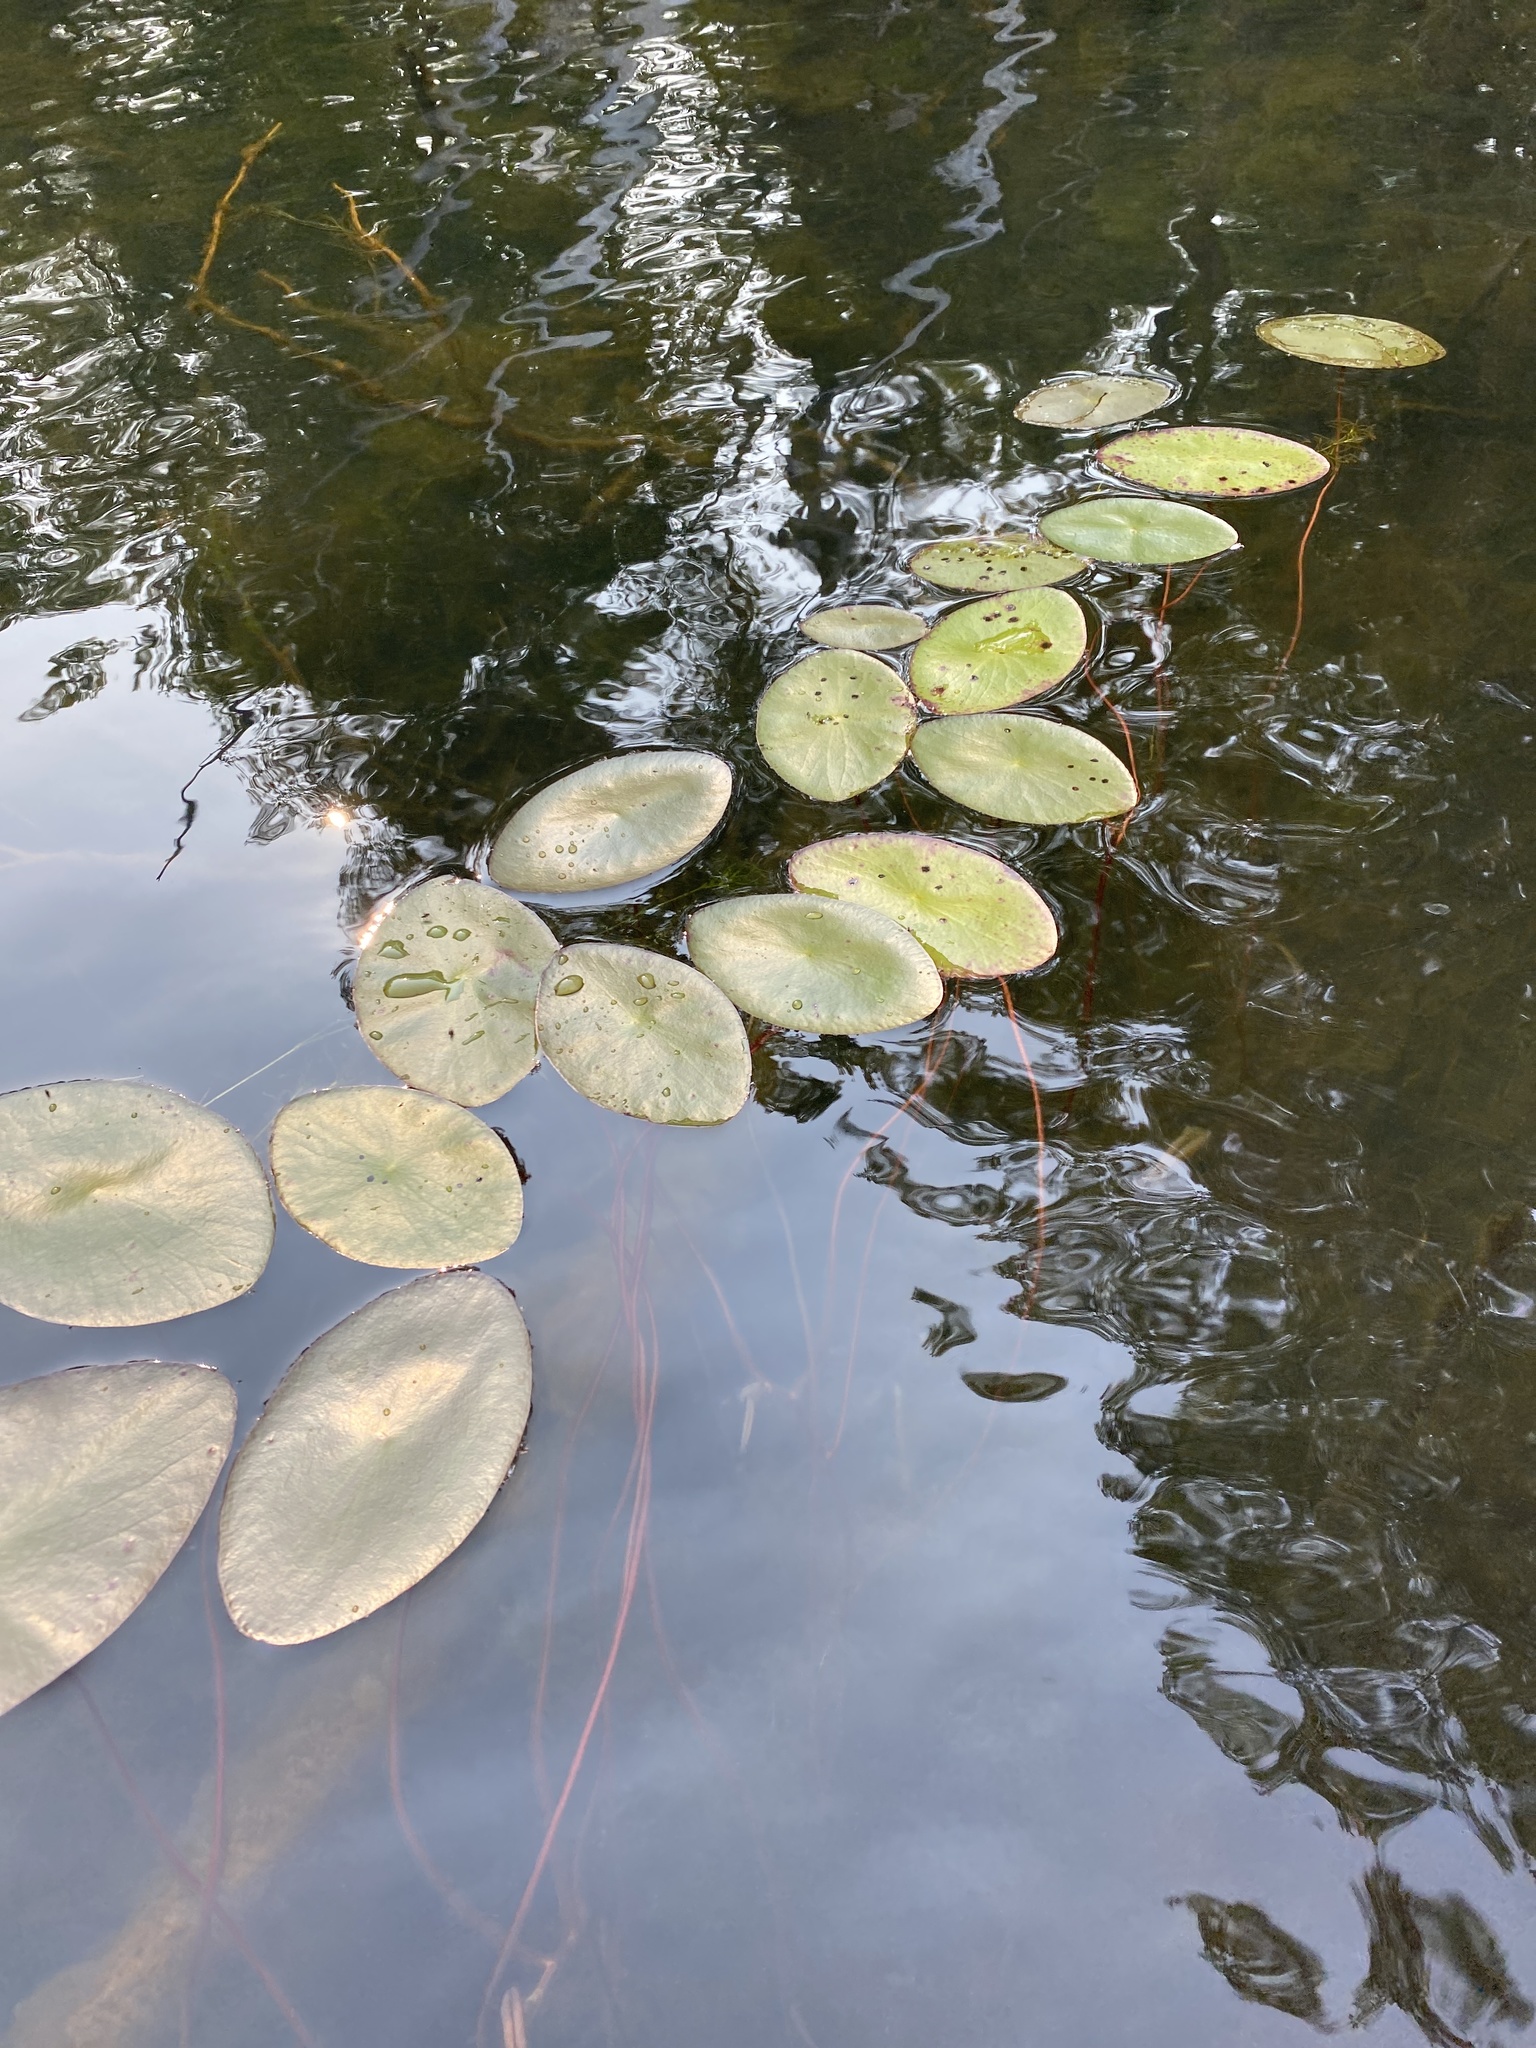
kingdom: Plantae
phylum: Tracheophyta
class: Magnoliopsida
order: Nymphaeales
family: Cabombaceae
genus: Brasenia
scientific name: Brasenia schreberi
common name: Water-shield
